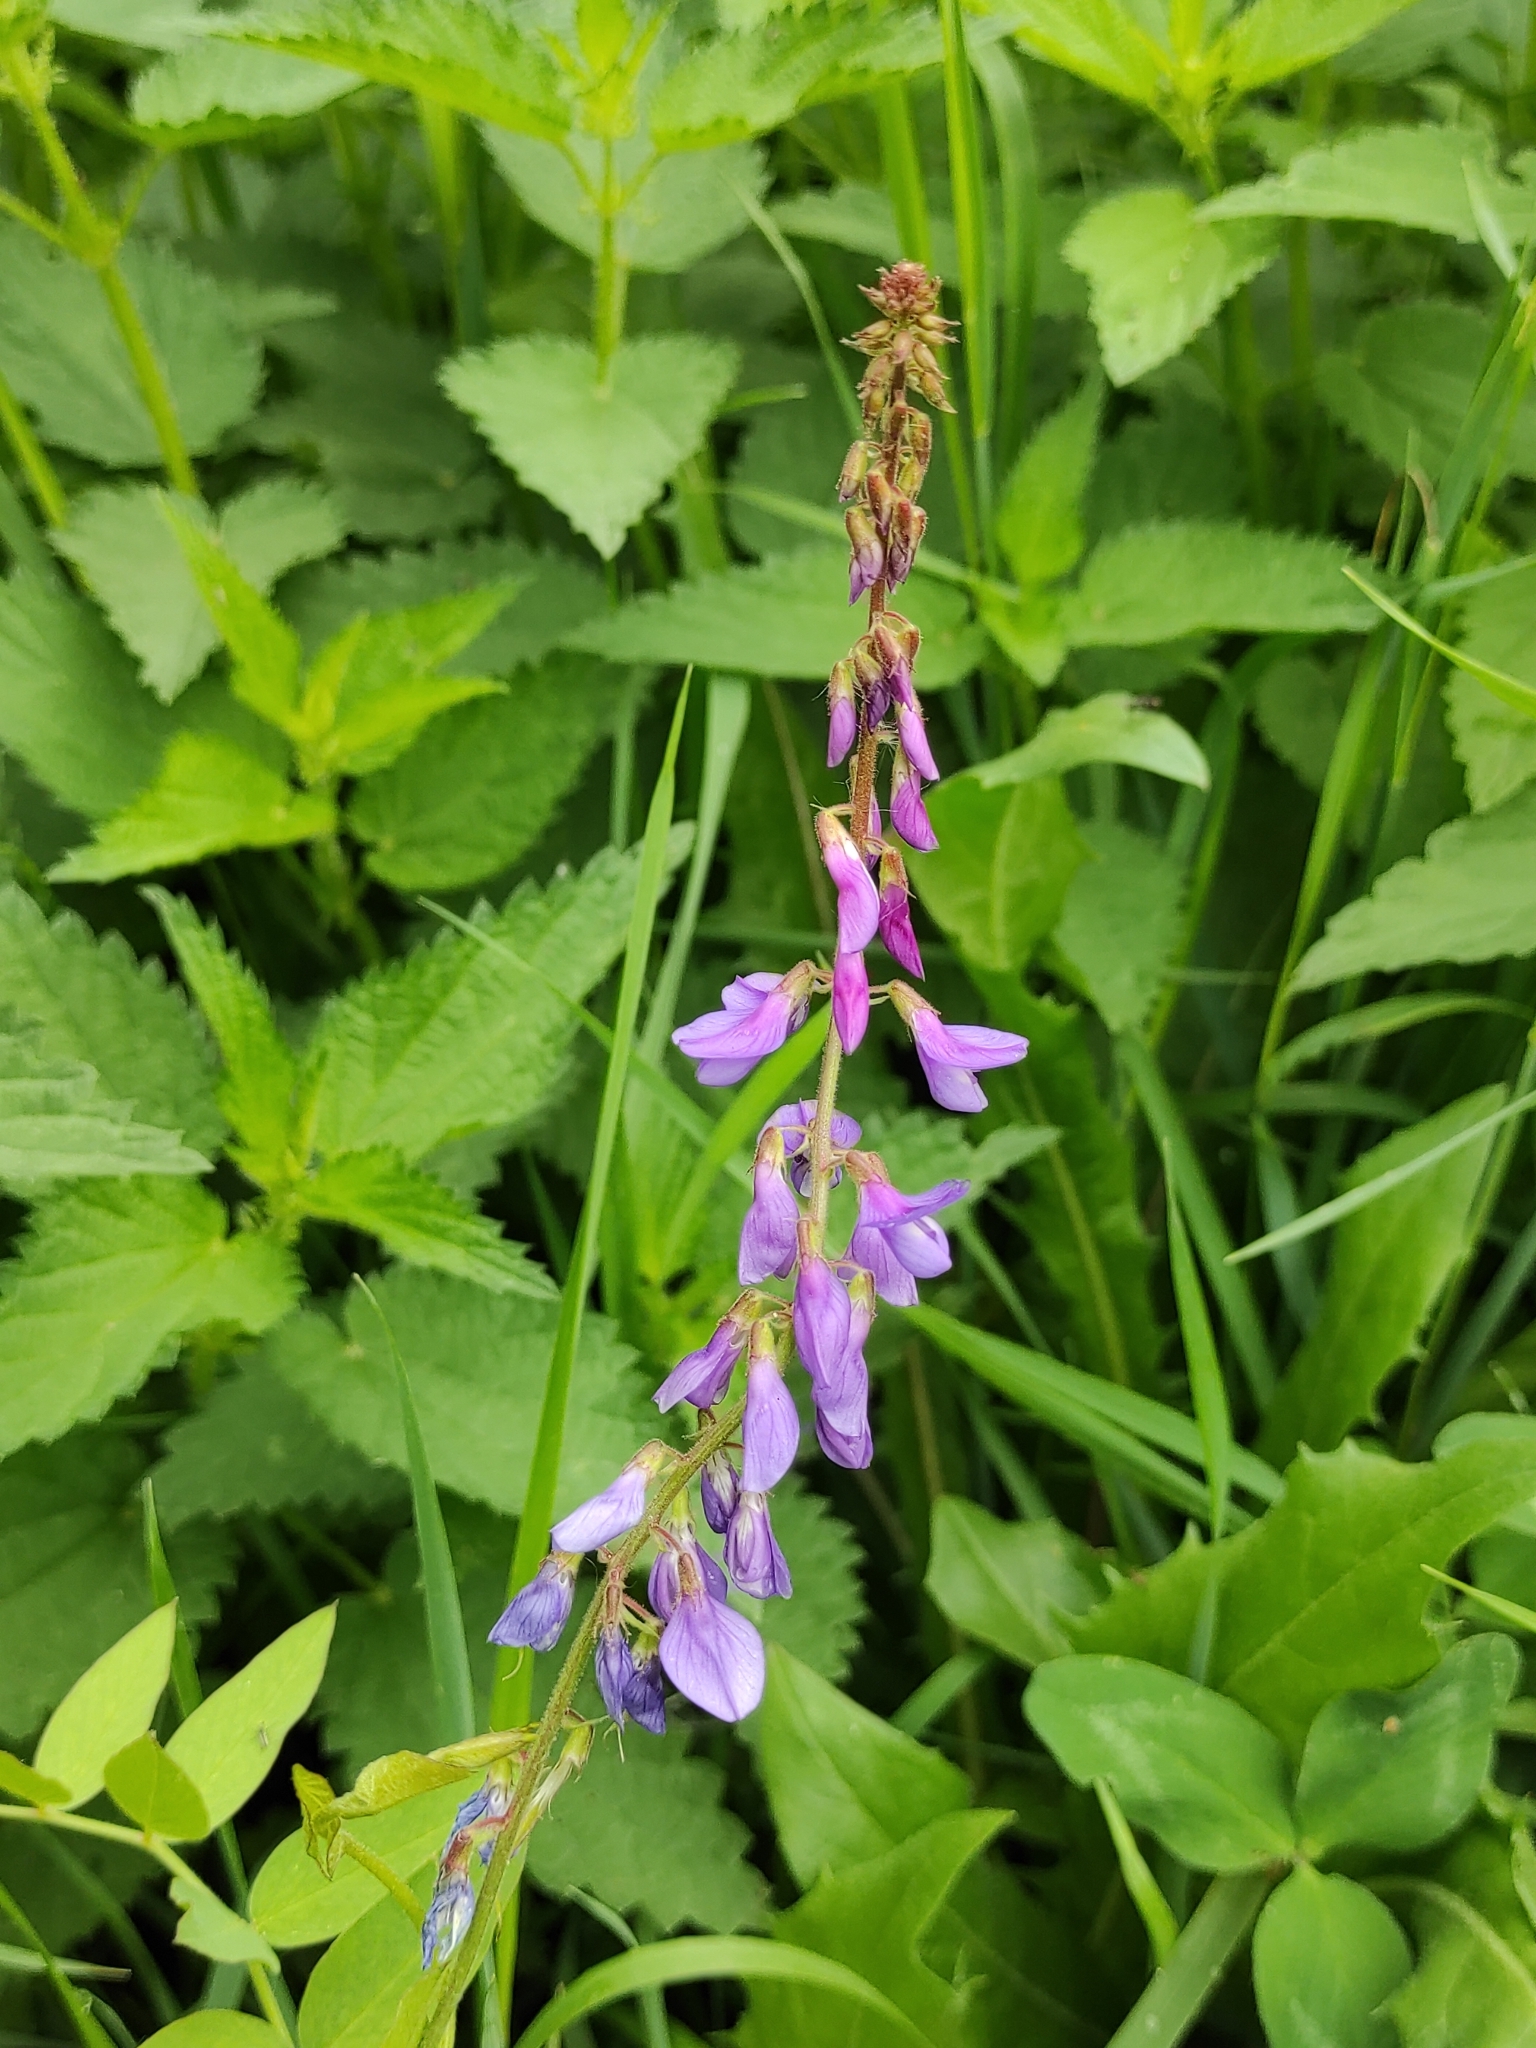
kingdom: Plantae
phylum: Tracheophyta
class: Magnoliopsida
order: Fabales
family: Fabaceae
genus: Galega
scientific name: Galega orientalis
